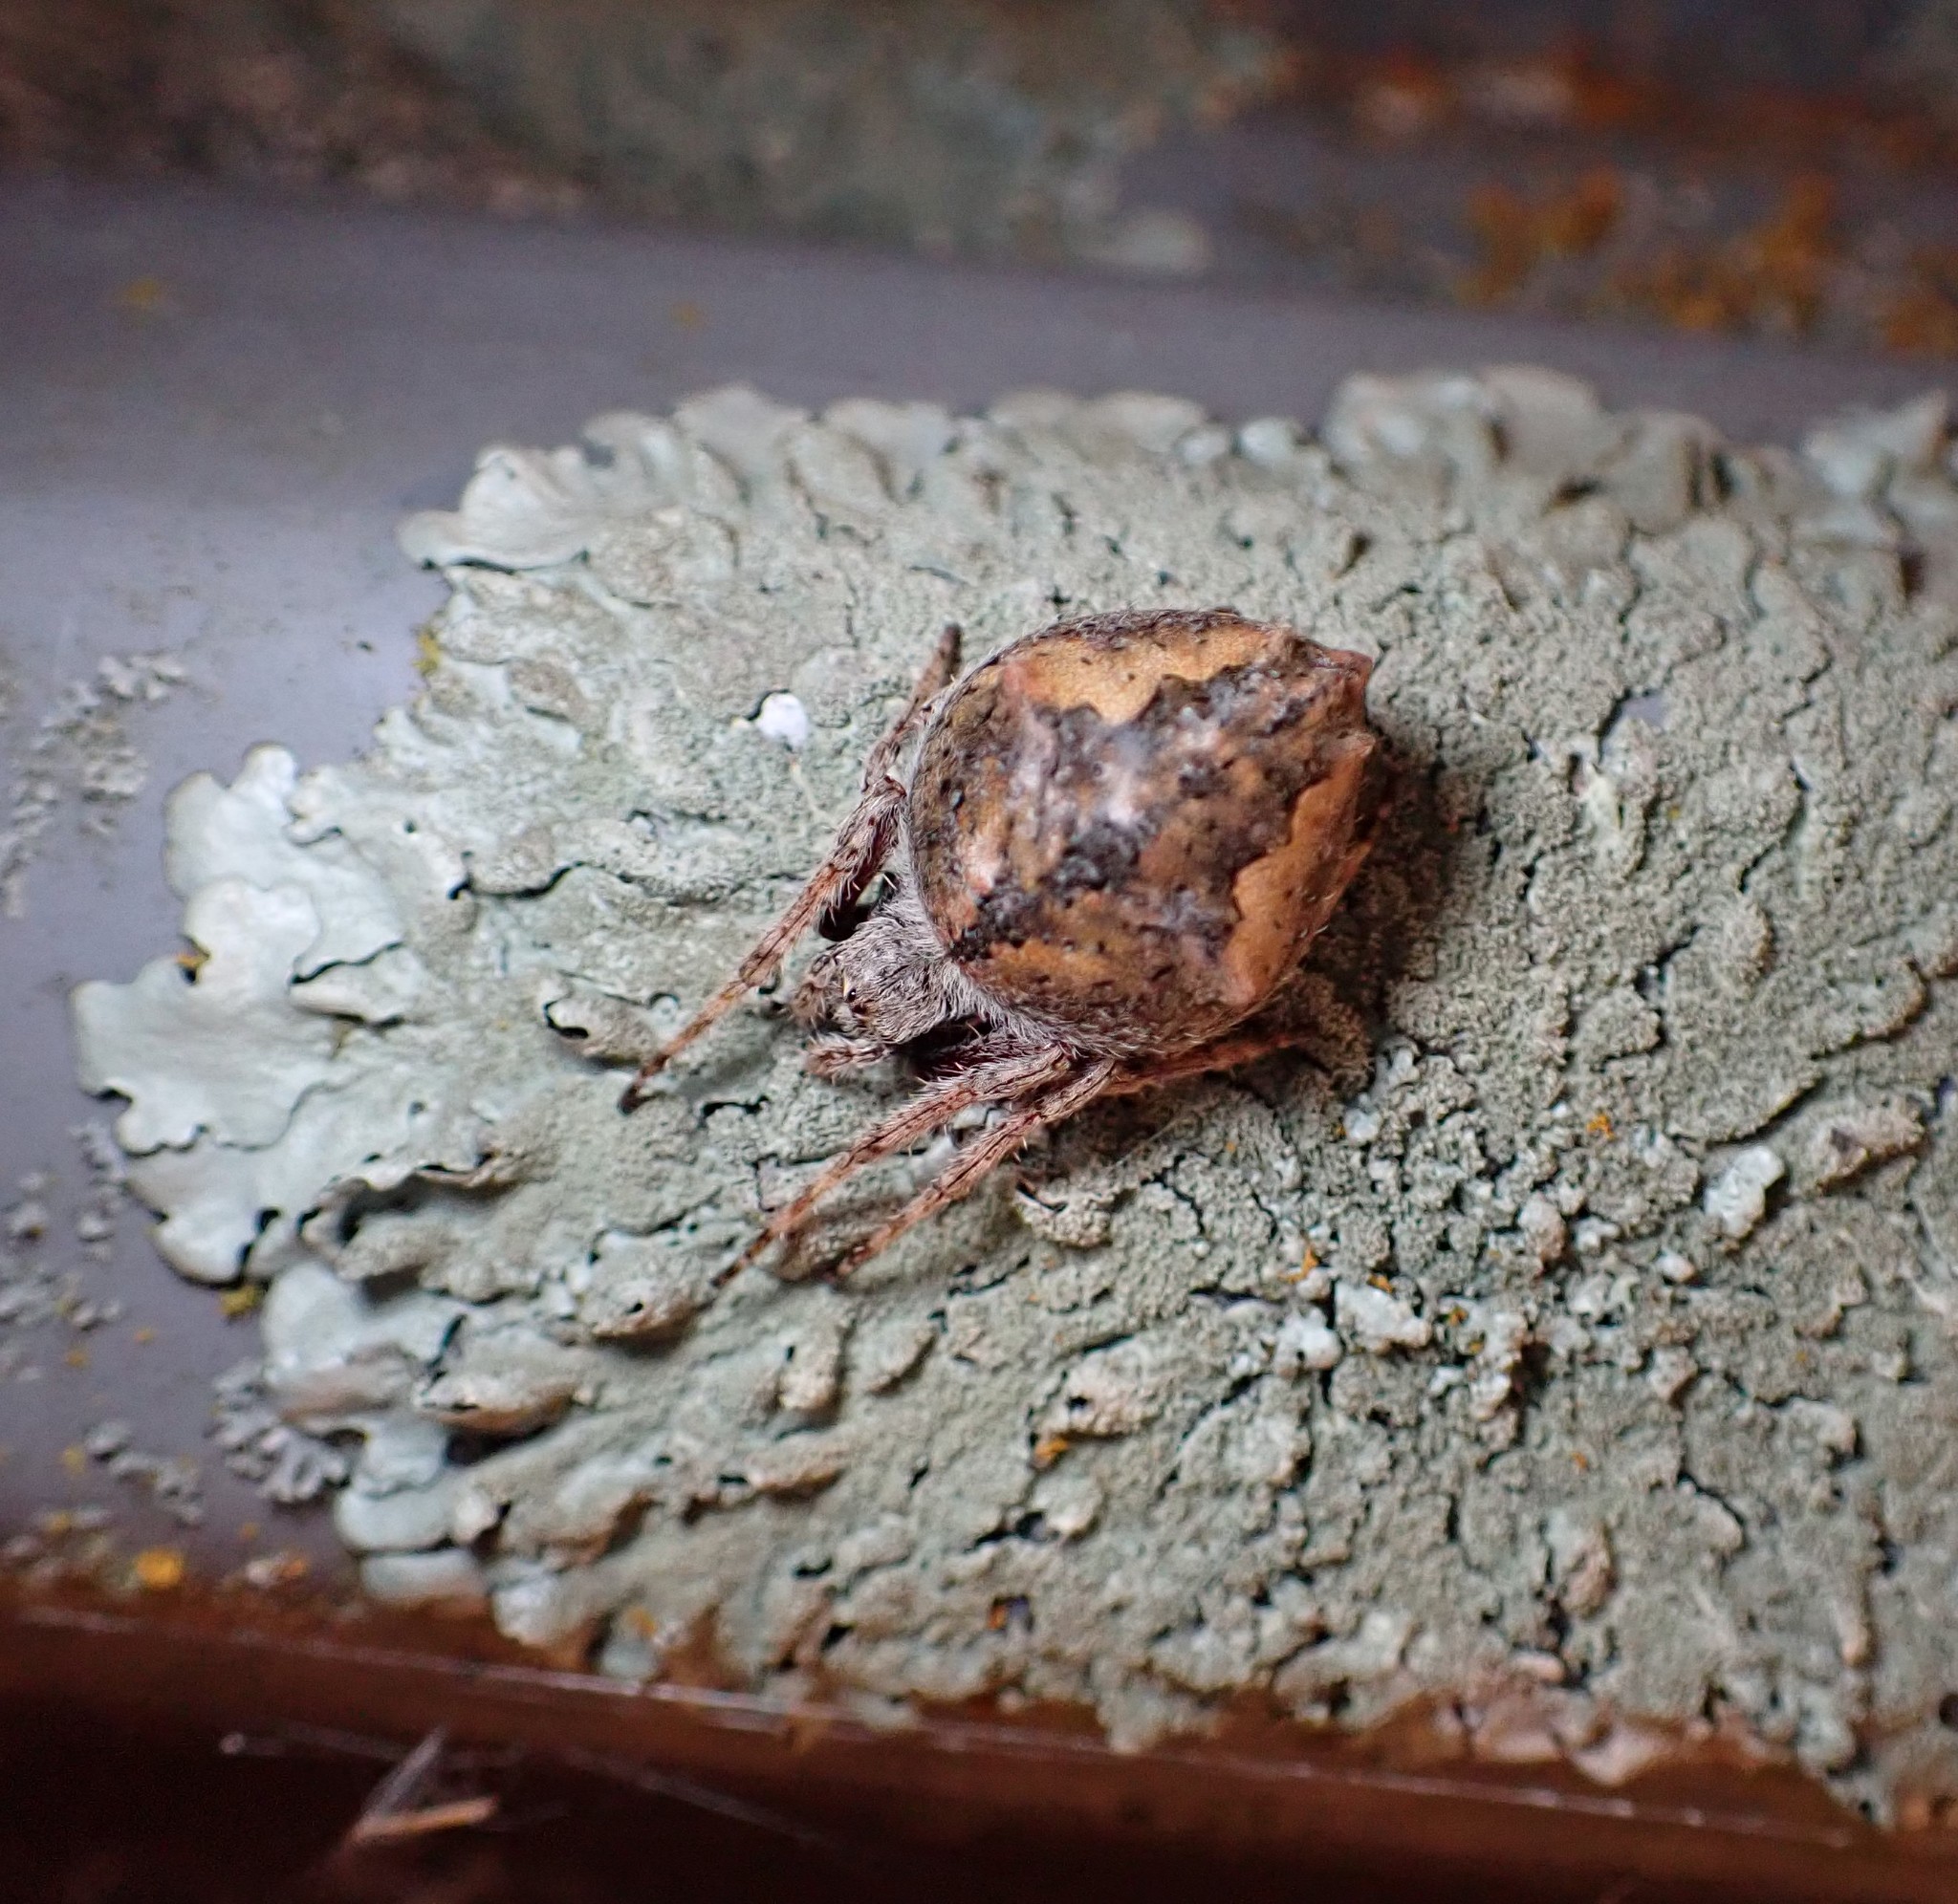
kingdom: Animalia
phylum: Arthropoda
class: Arachnida
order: Araneae
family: Araneidae
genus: Eriophora
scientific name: Eriophora pustulosa
